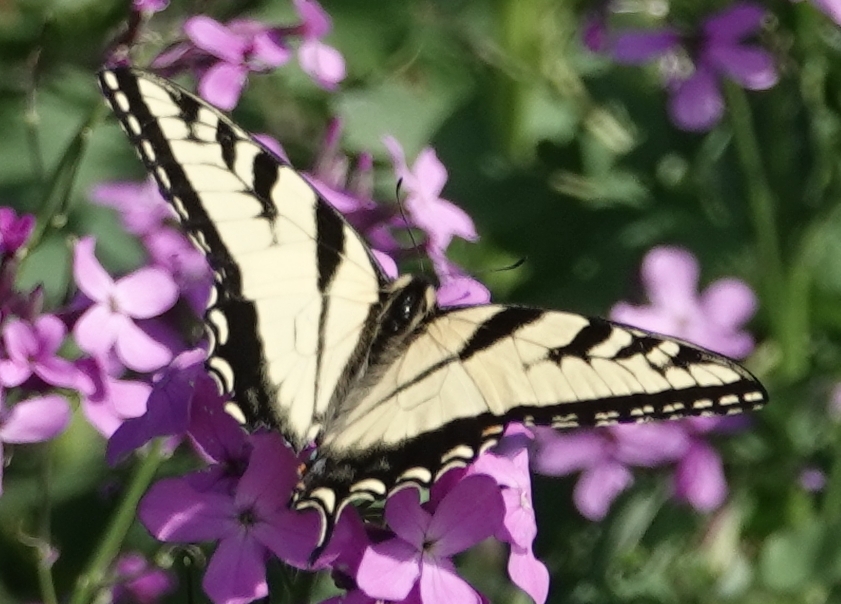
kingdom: Animalia
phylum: Arthropoda
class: Insecta
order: Lepidoptera
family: Papilionidae
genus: Papilio
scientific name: Papilio glaucus
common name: Tiger swallowtail
